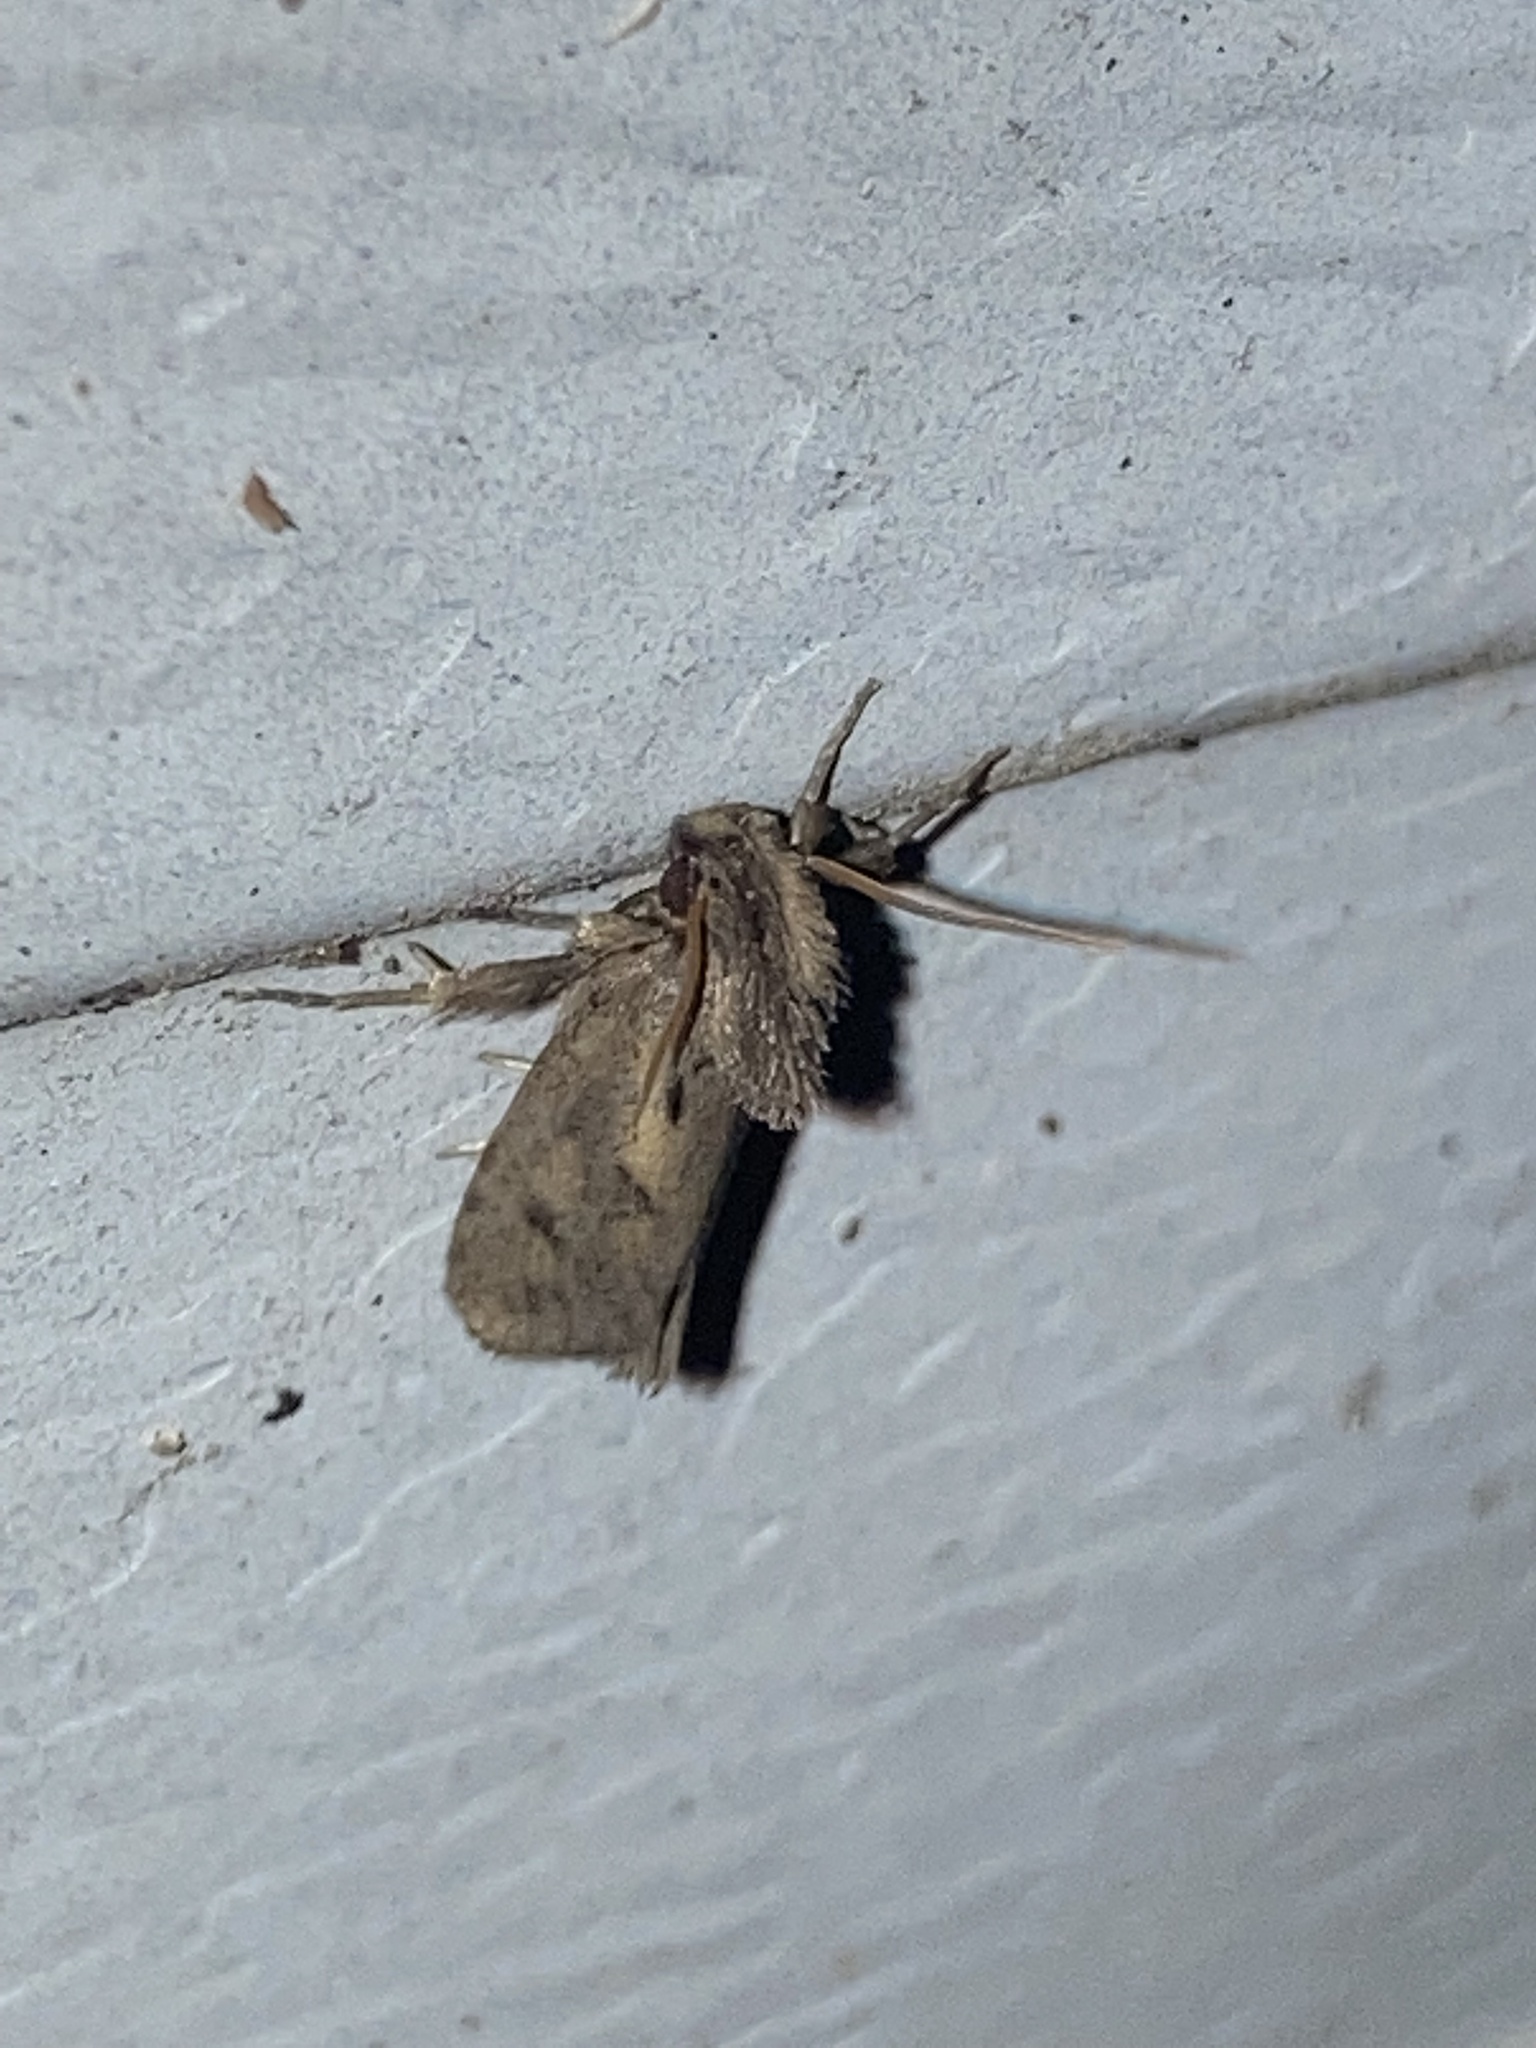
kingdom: Animalia
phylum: Arthropoda
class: Insecta
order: Lepidoptera
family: Tineidae
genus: Acrolophus
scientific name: Acrolophus popeanella
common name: Clemens' grass tubeworm moth
